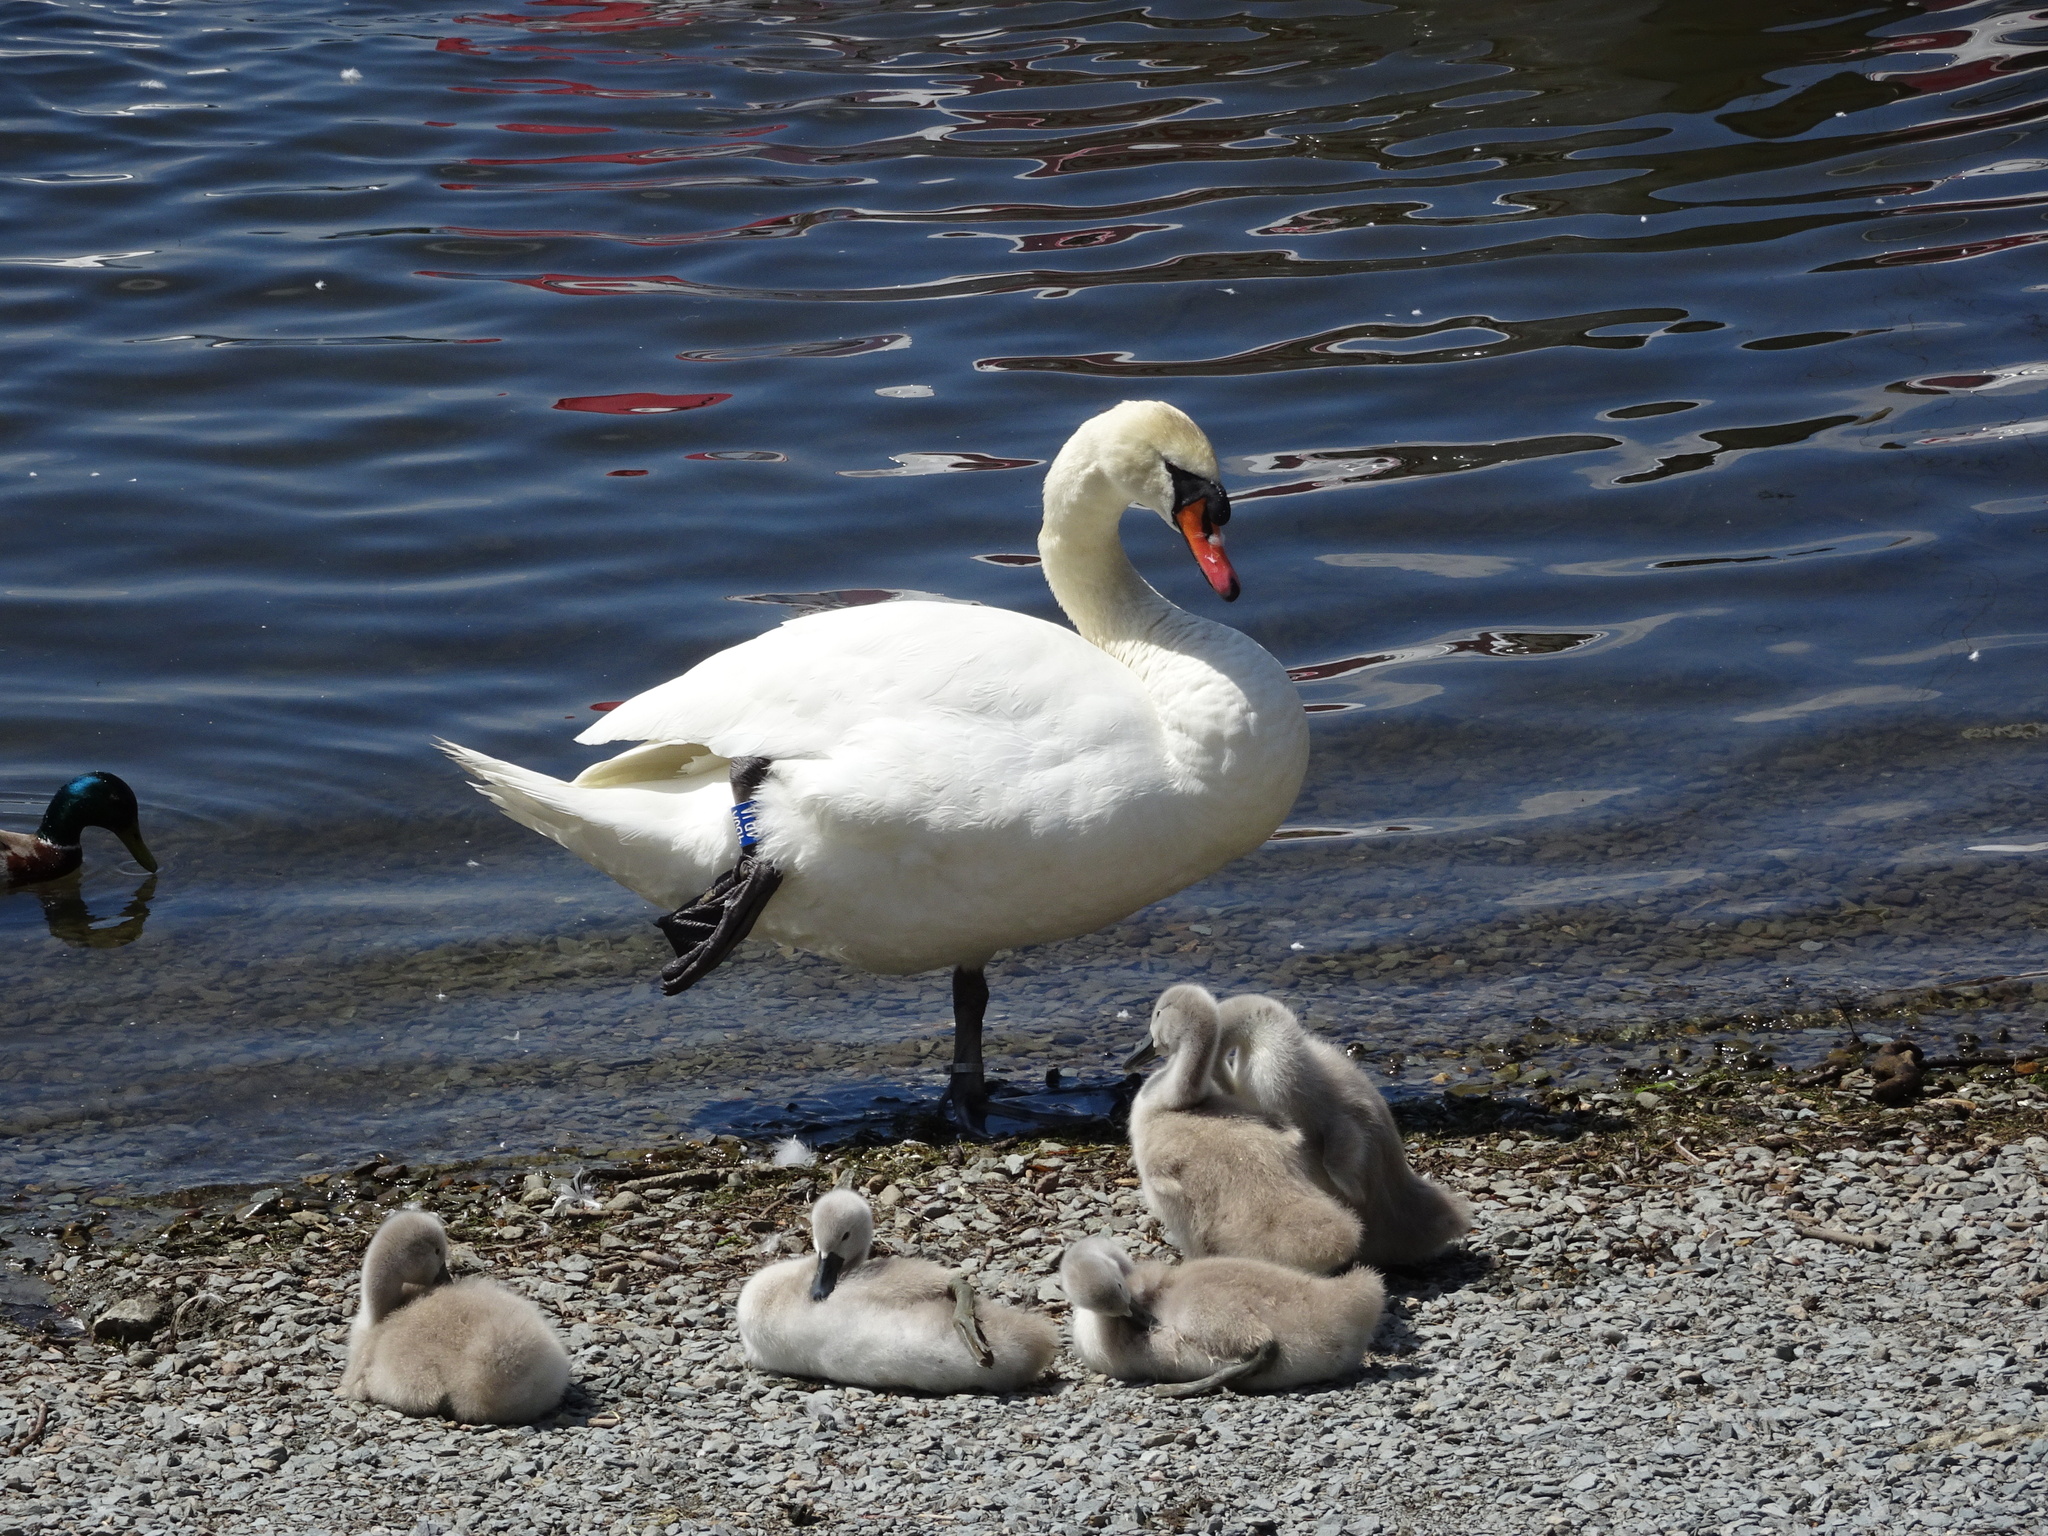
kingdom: Animalia
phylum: Chordata
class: Aves
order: Anseriformes
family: Anatidae
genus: Cygnus
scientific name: Cygnus olor
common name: Mute swan
